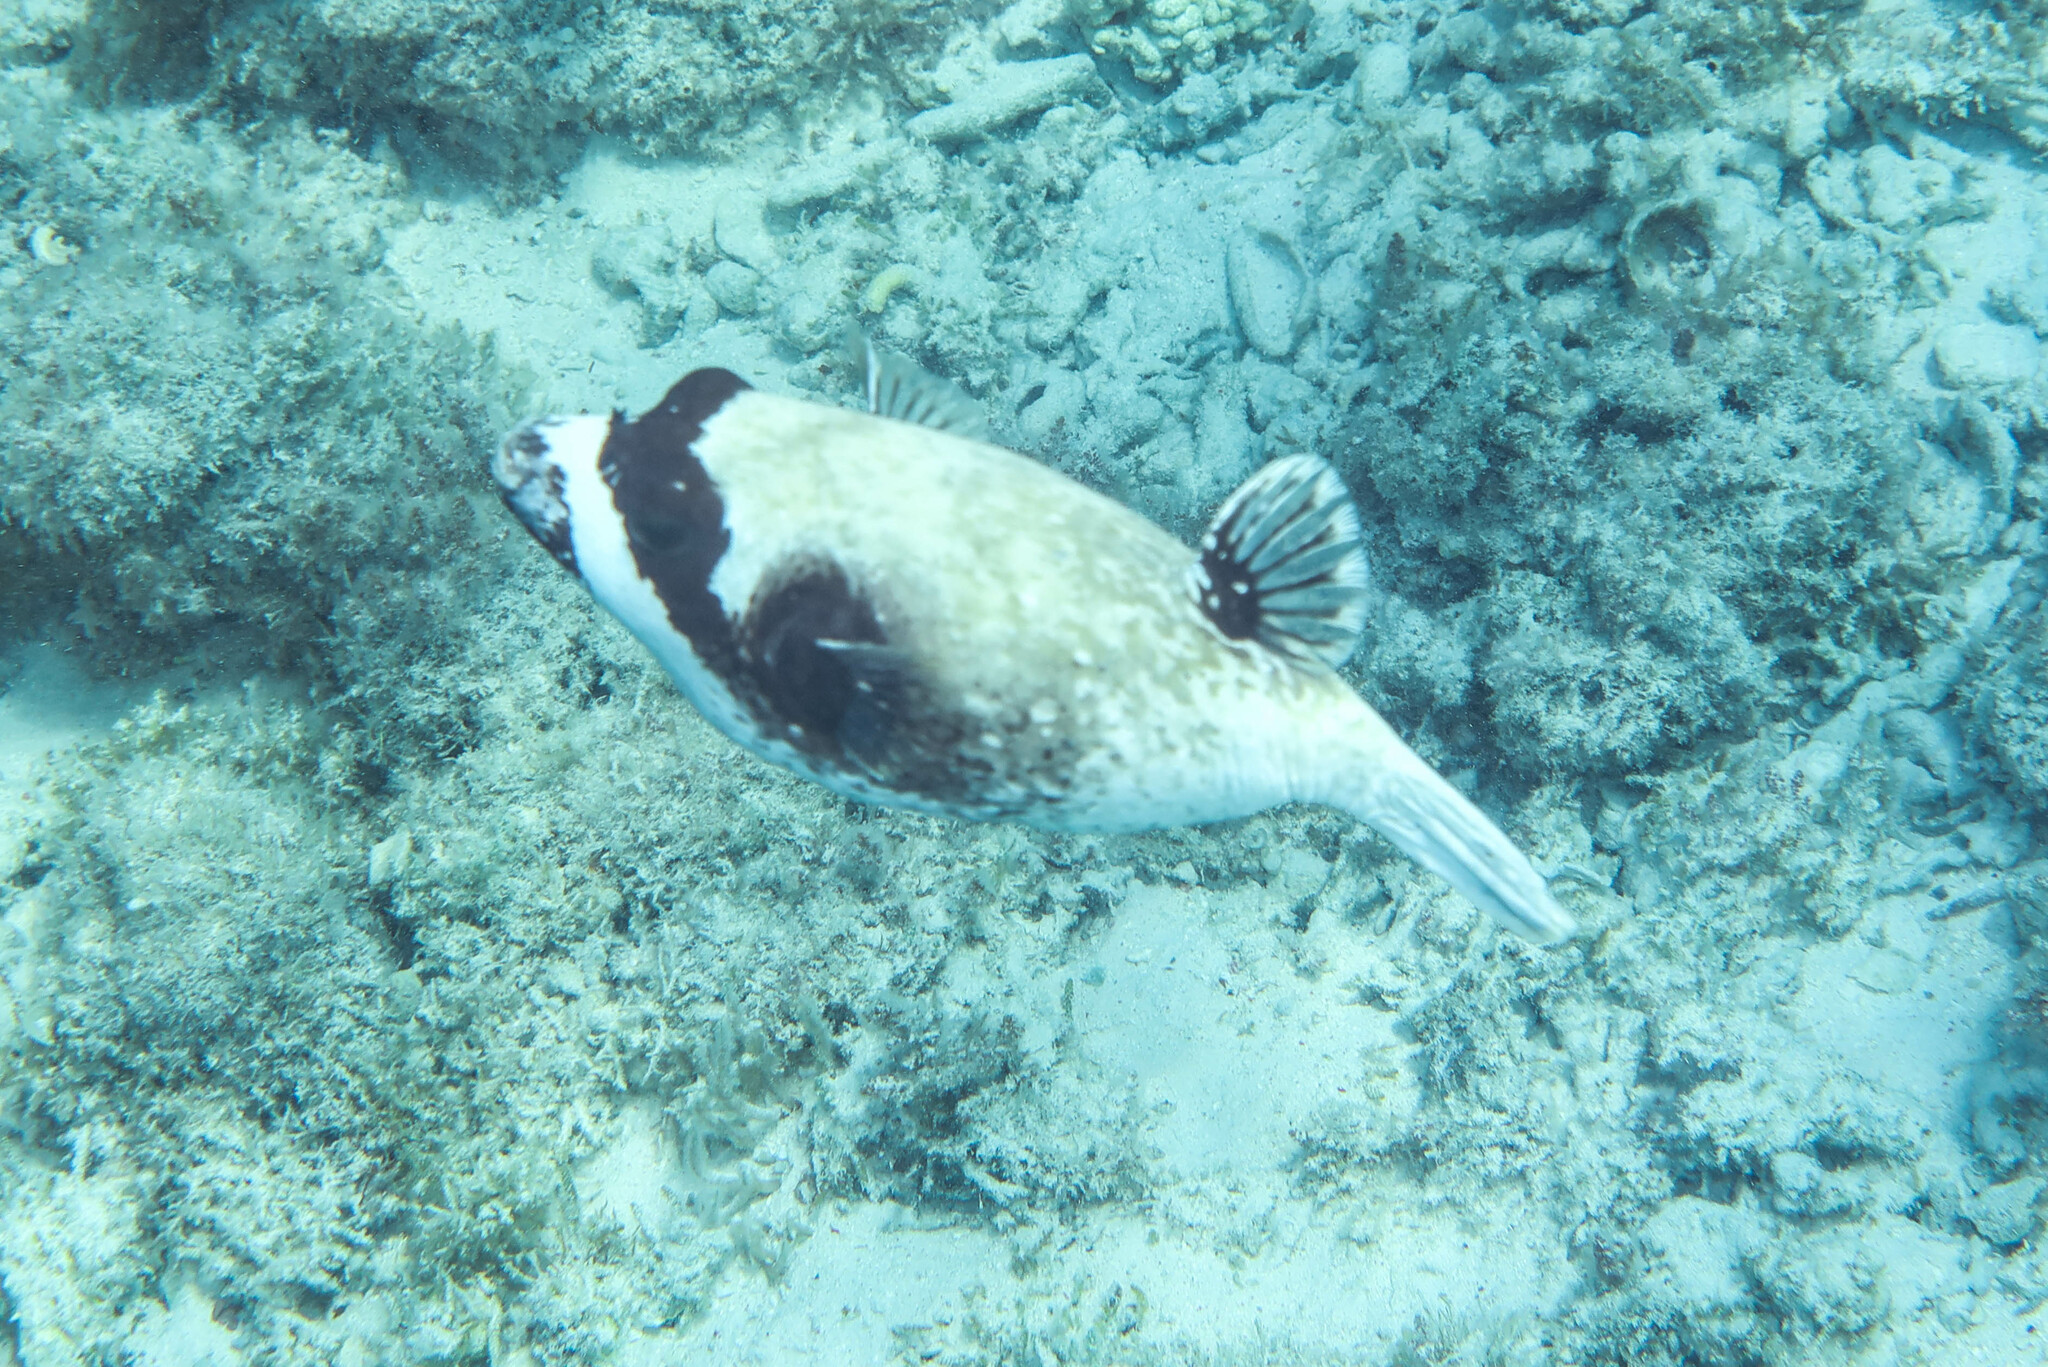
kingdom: Animalia
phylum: Chordata
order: Tetraodontiformes
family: Tetraodontidae
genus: Arothron
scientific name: Arothron diadematus
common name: Masked puffer
